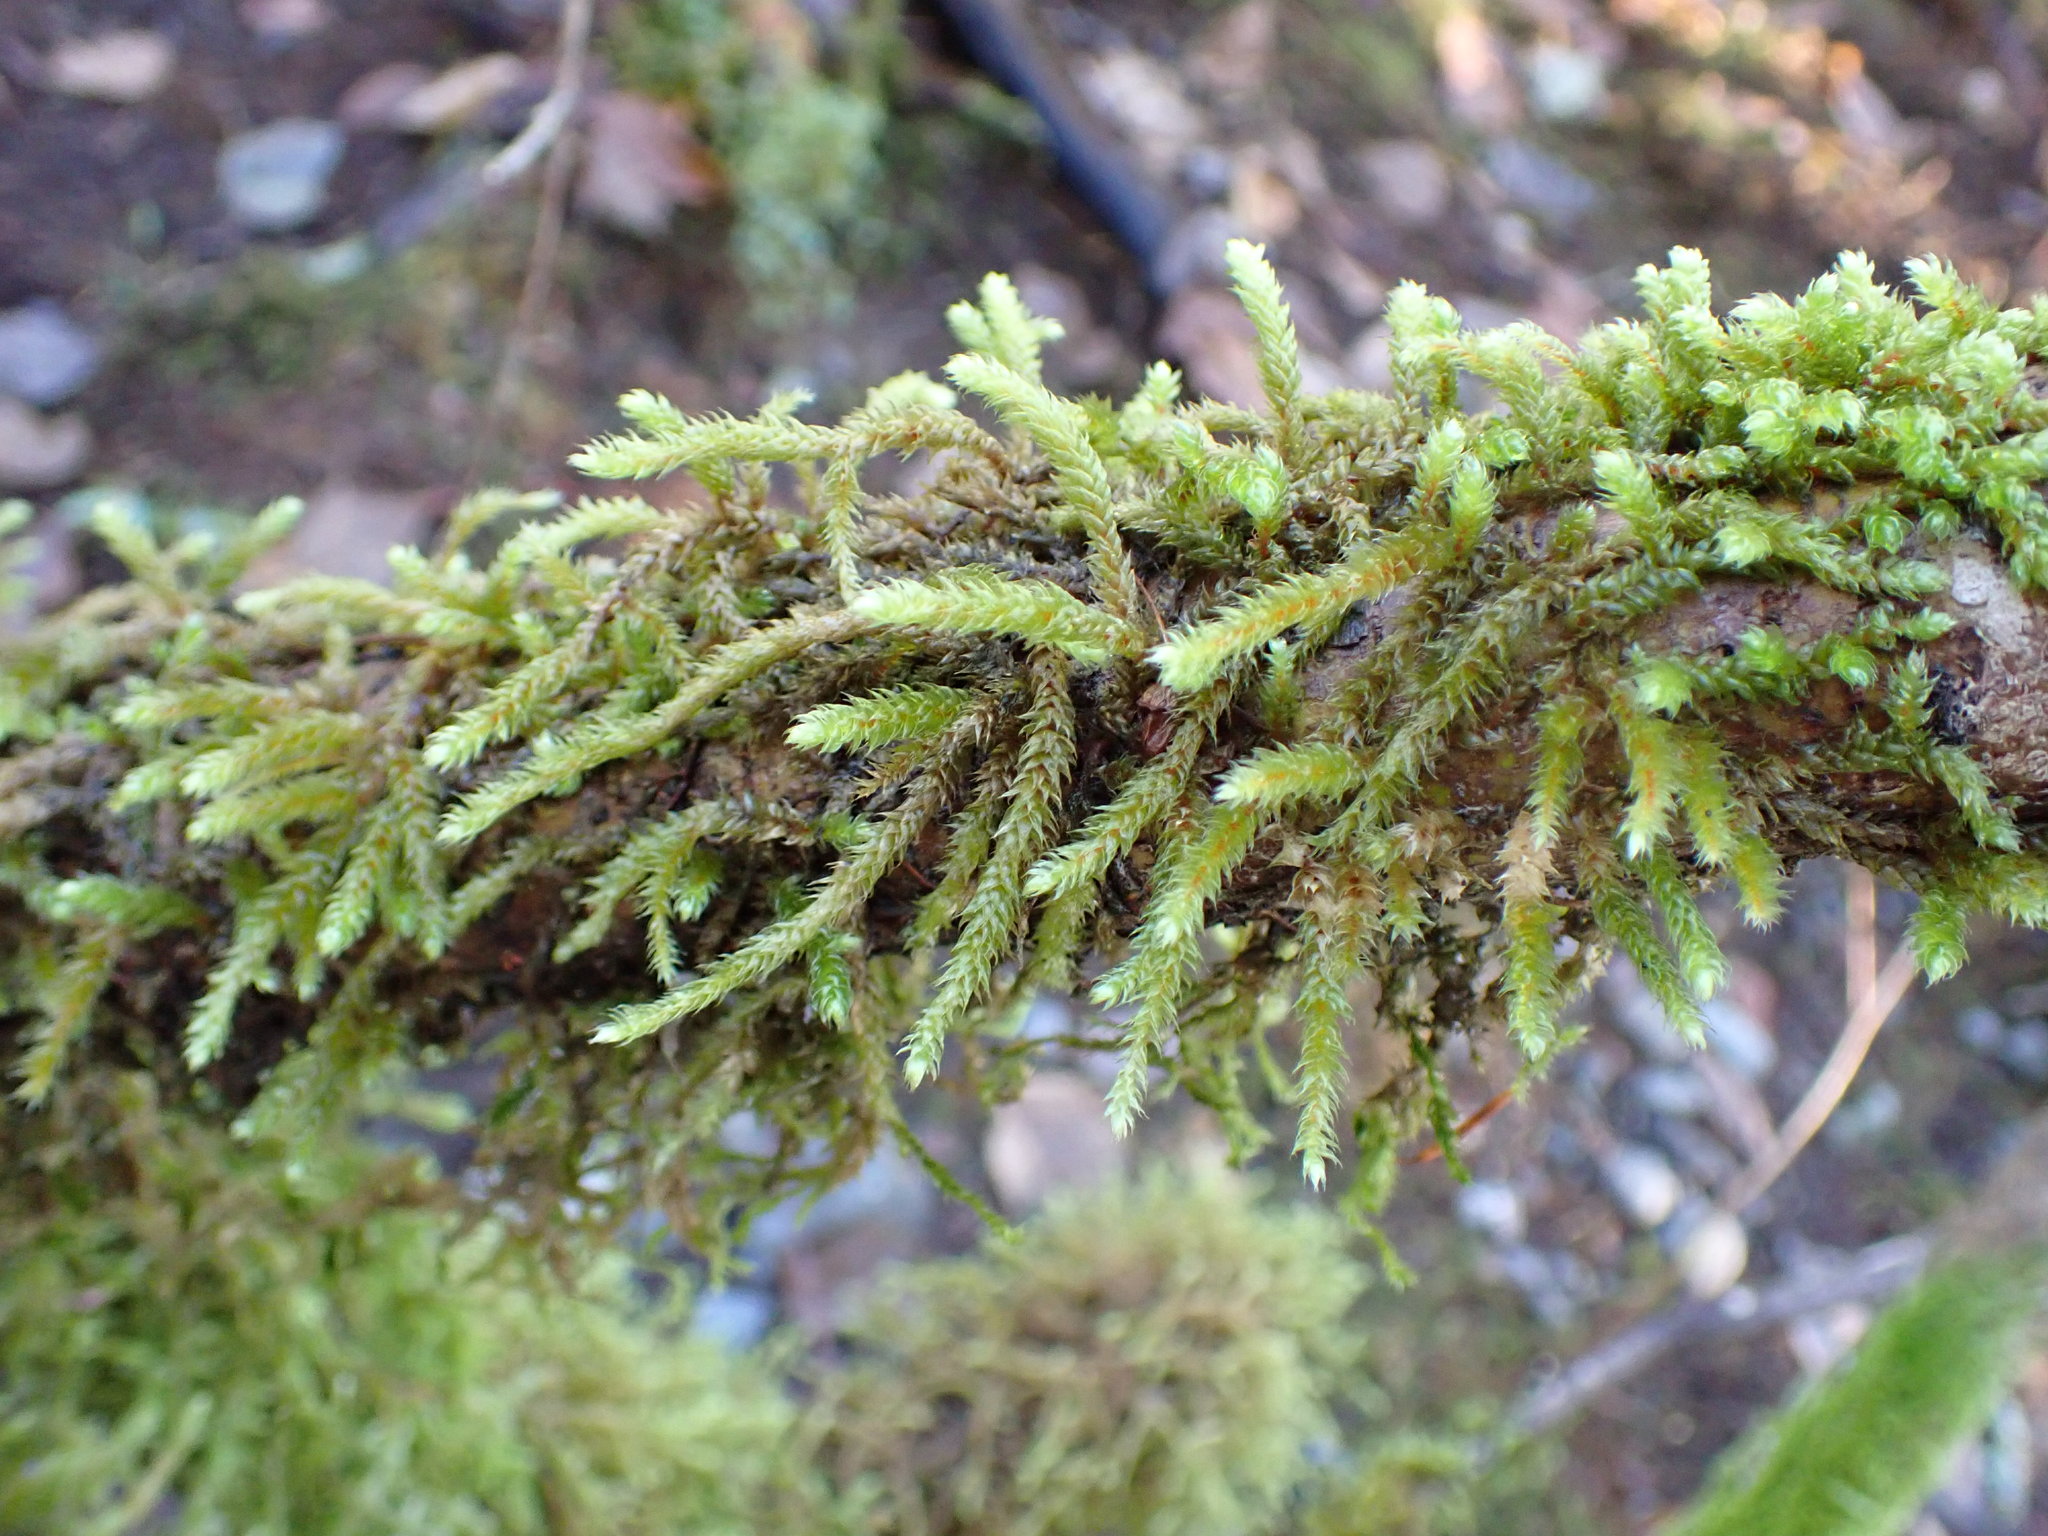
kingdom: Plantae
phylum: Bryophyta
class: Bryopsida
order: Hypnales
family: Antitrichiaceae
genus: Antitrichia
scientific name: Antitrichia curtipendula
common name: Pendulous wing-moss
